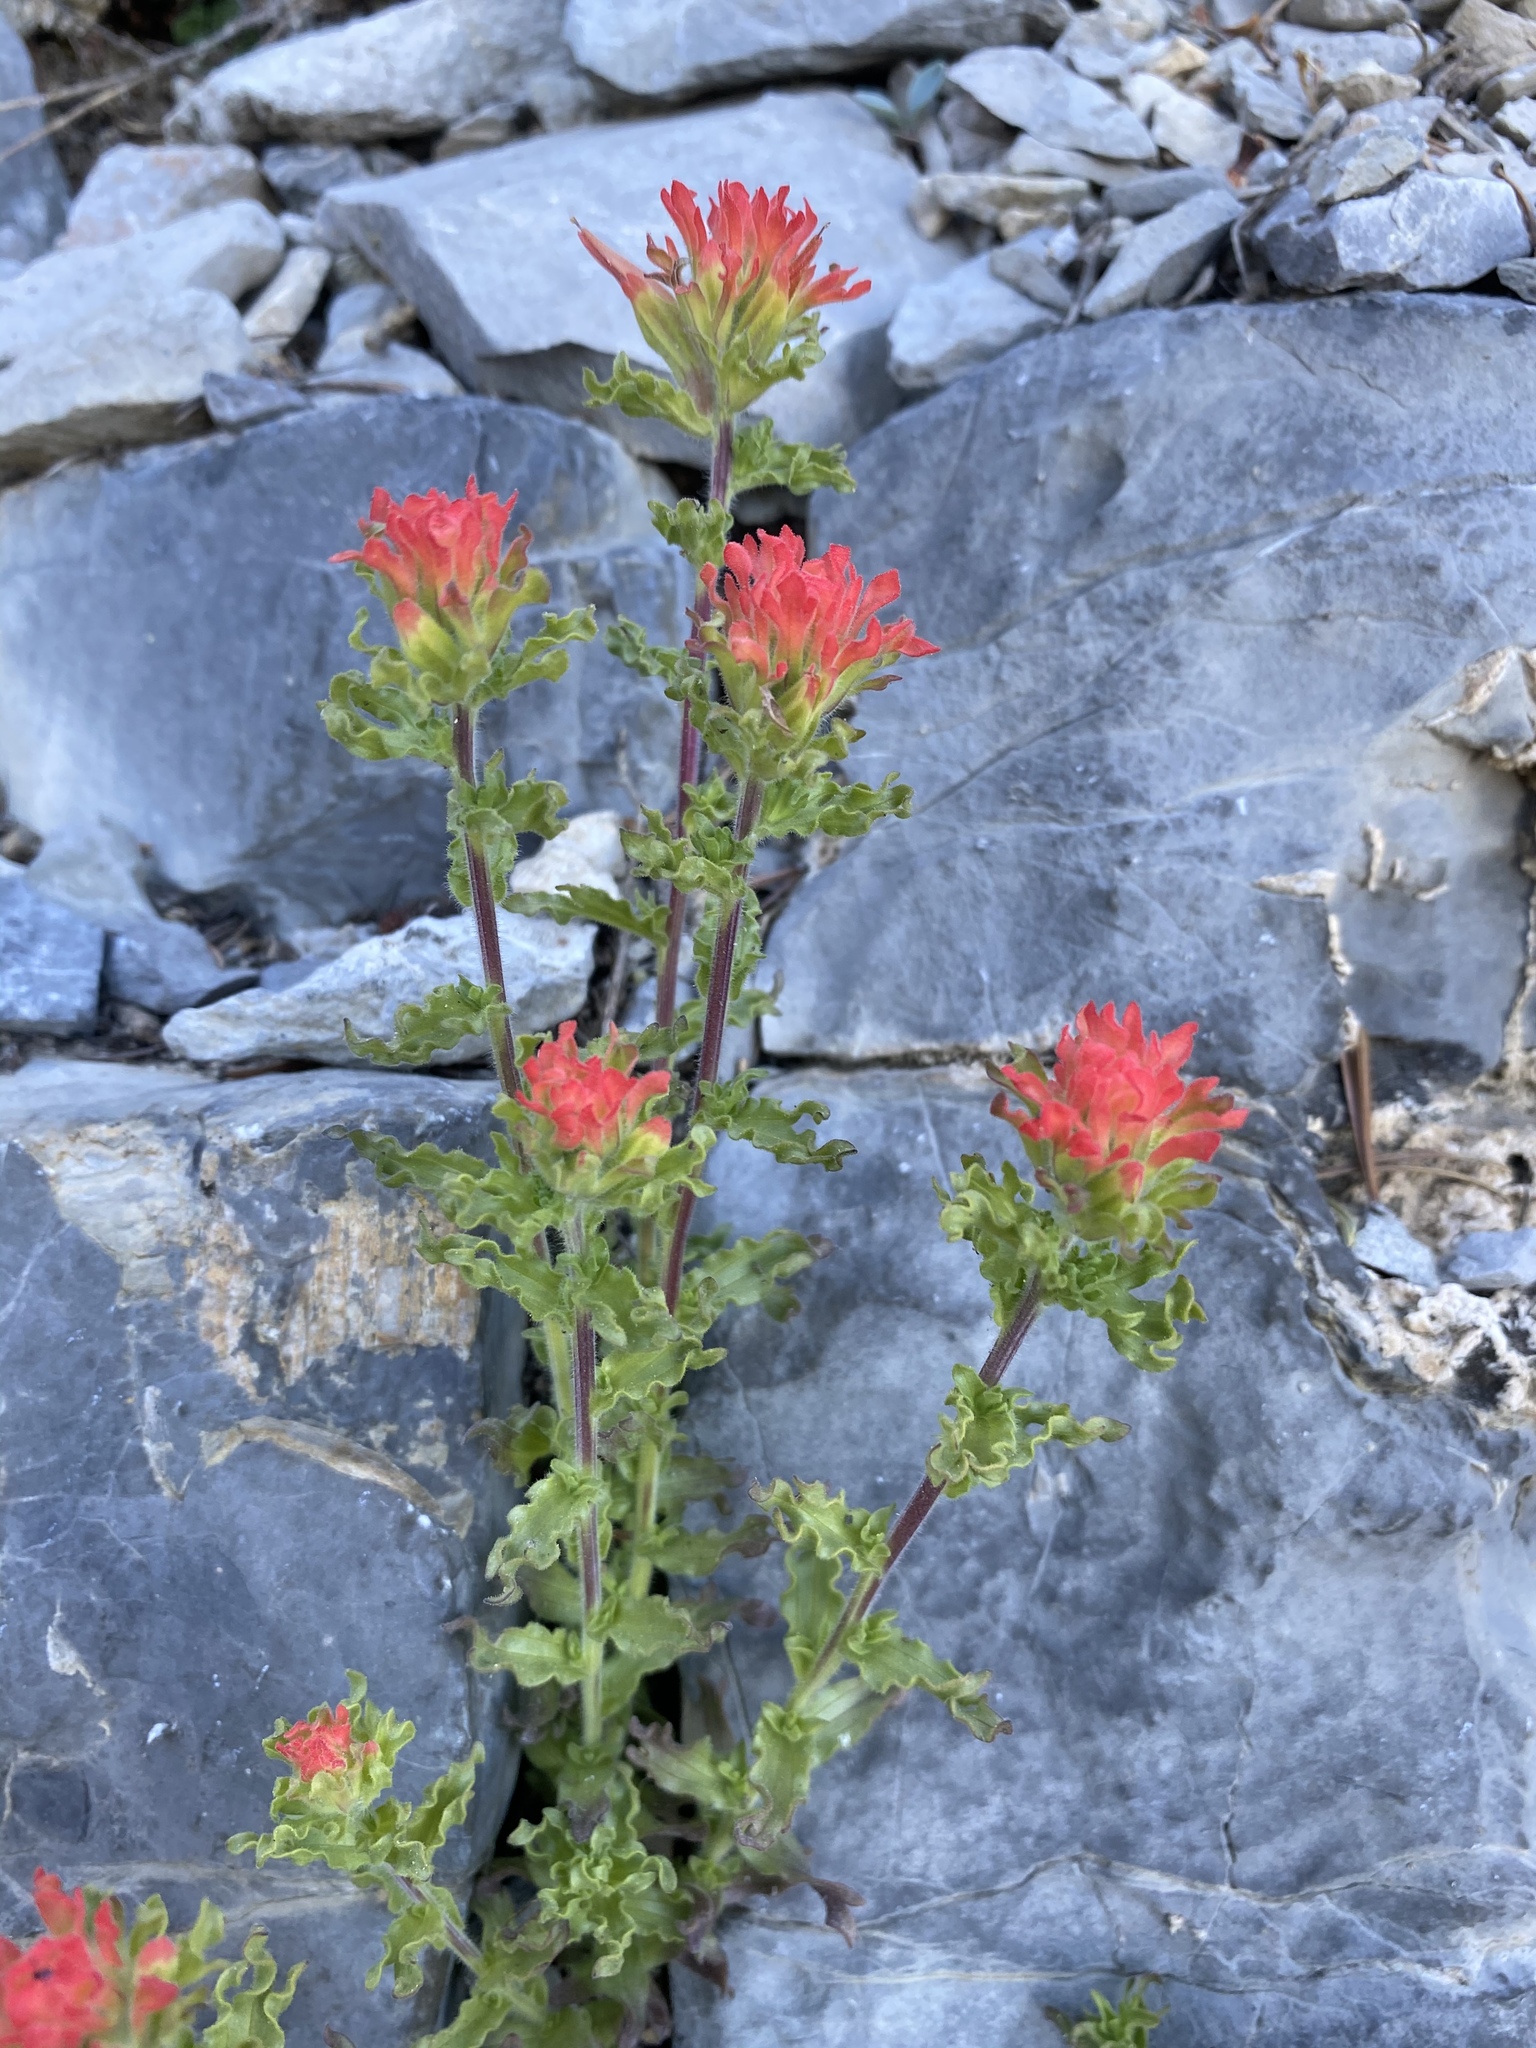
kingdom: Plantae
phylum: Tracheophyta
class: Magnoliopsida
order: Lamiales
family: Orobanchaceae
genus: Castilleja
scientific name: Castilleja martini
